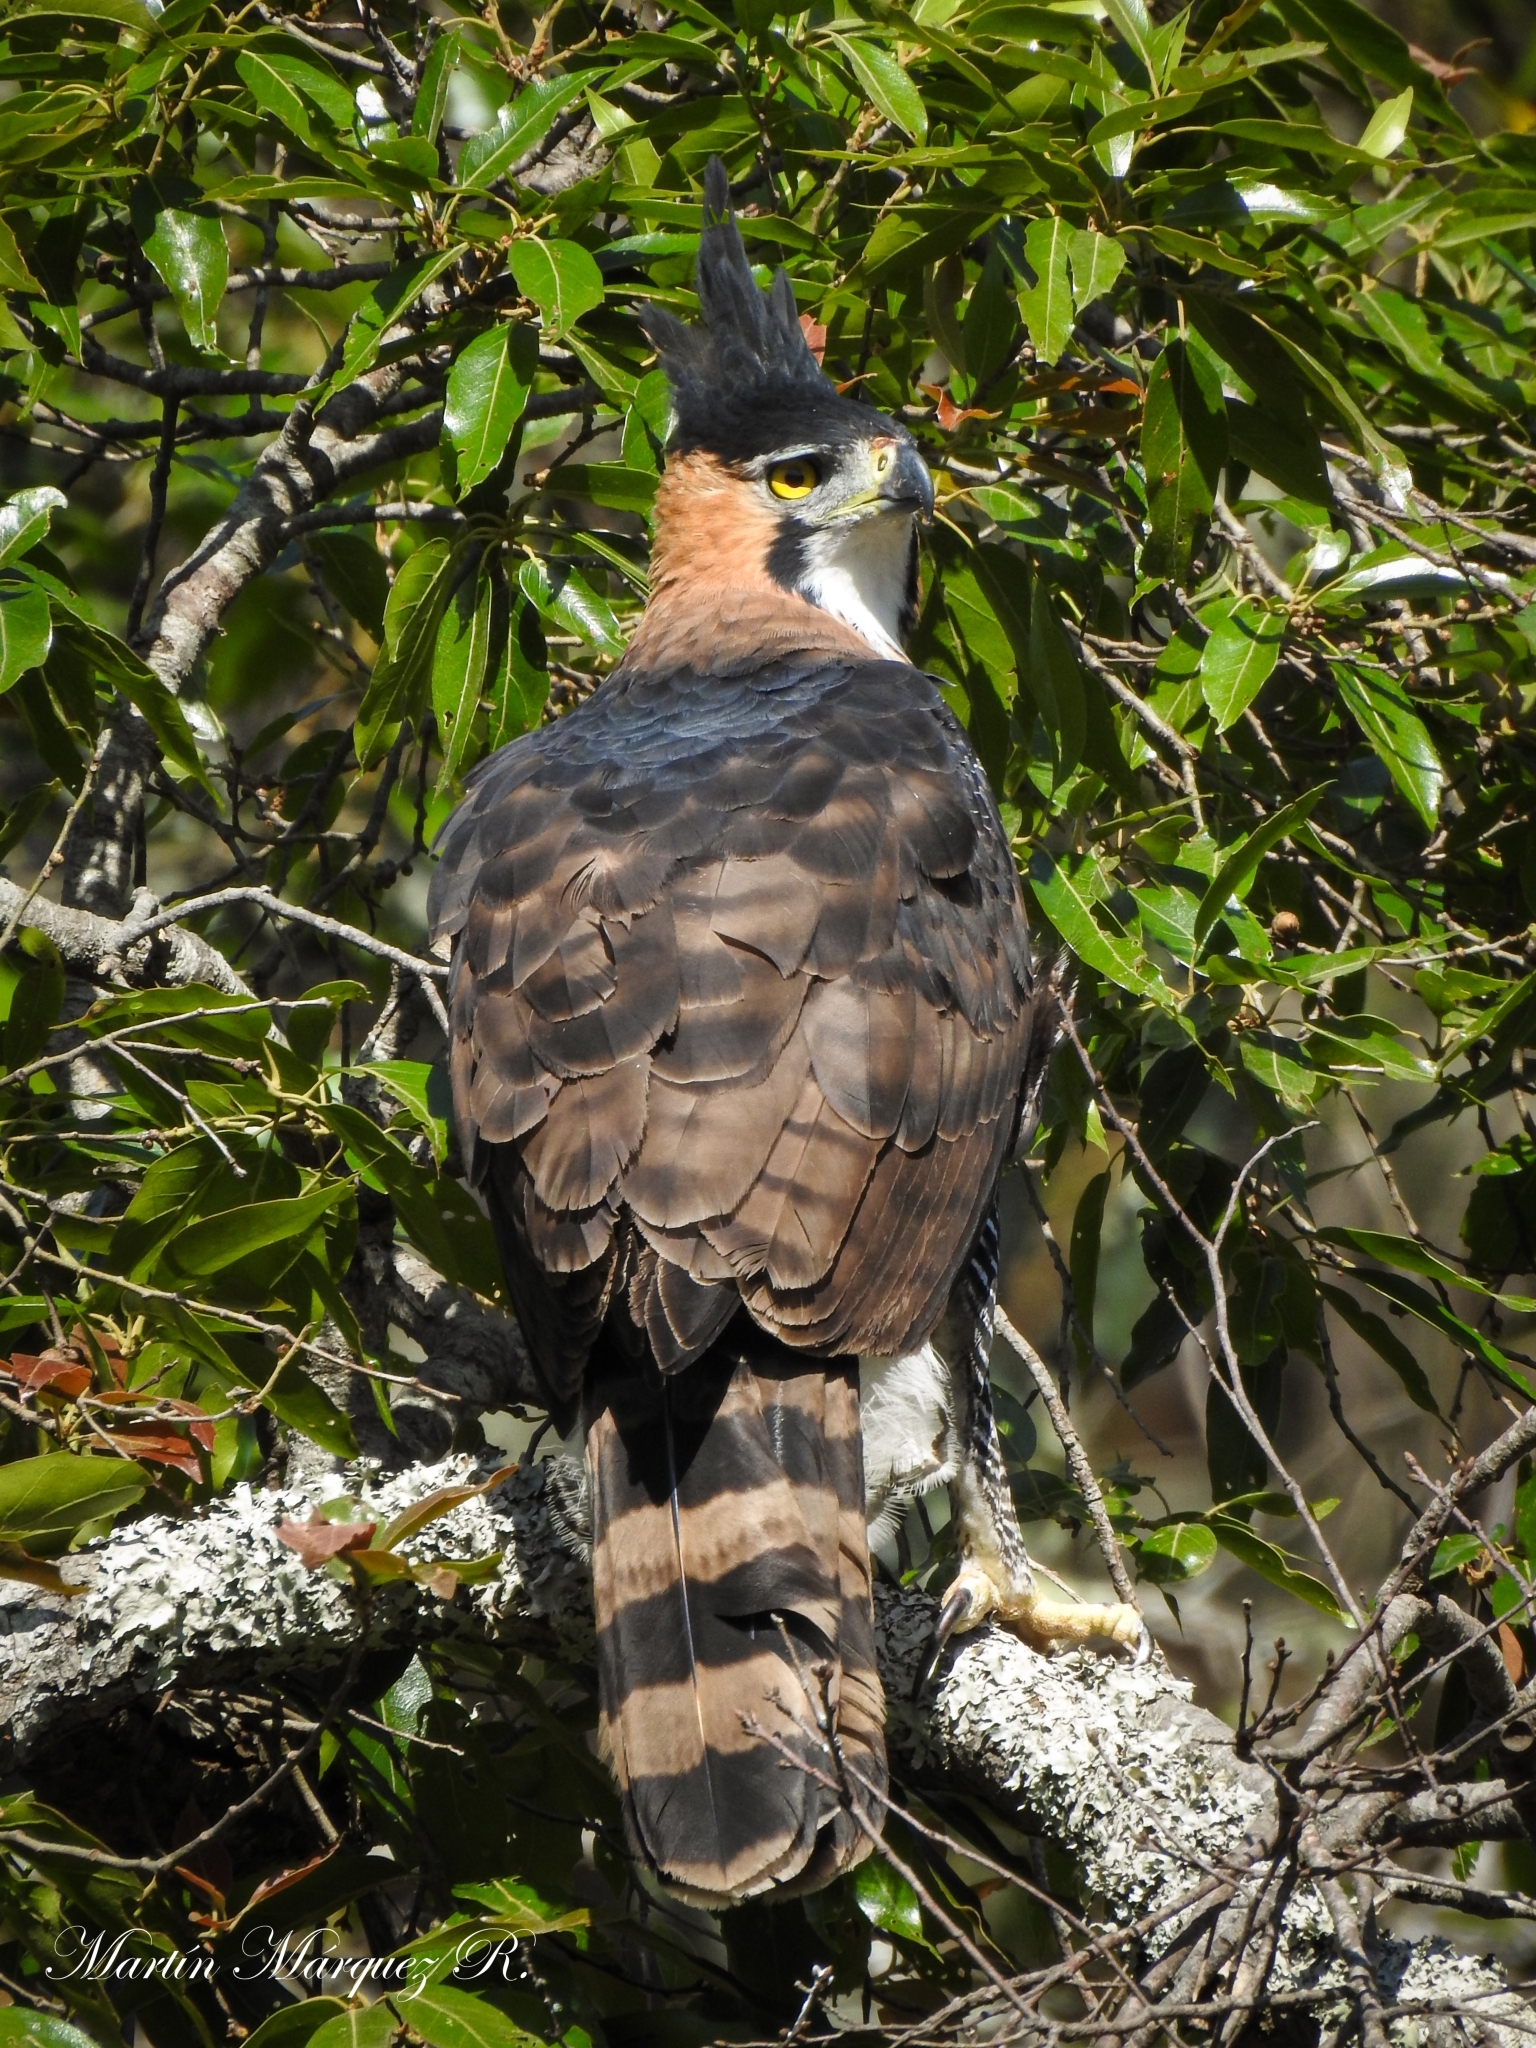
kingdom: Animalia
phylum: Chordata
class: Aves
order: Accipitriformes
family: Accipitridae
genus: Spizaetus
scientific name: Spizaetus ornatus
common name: Ornate hawk-eagle
